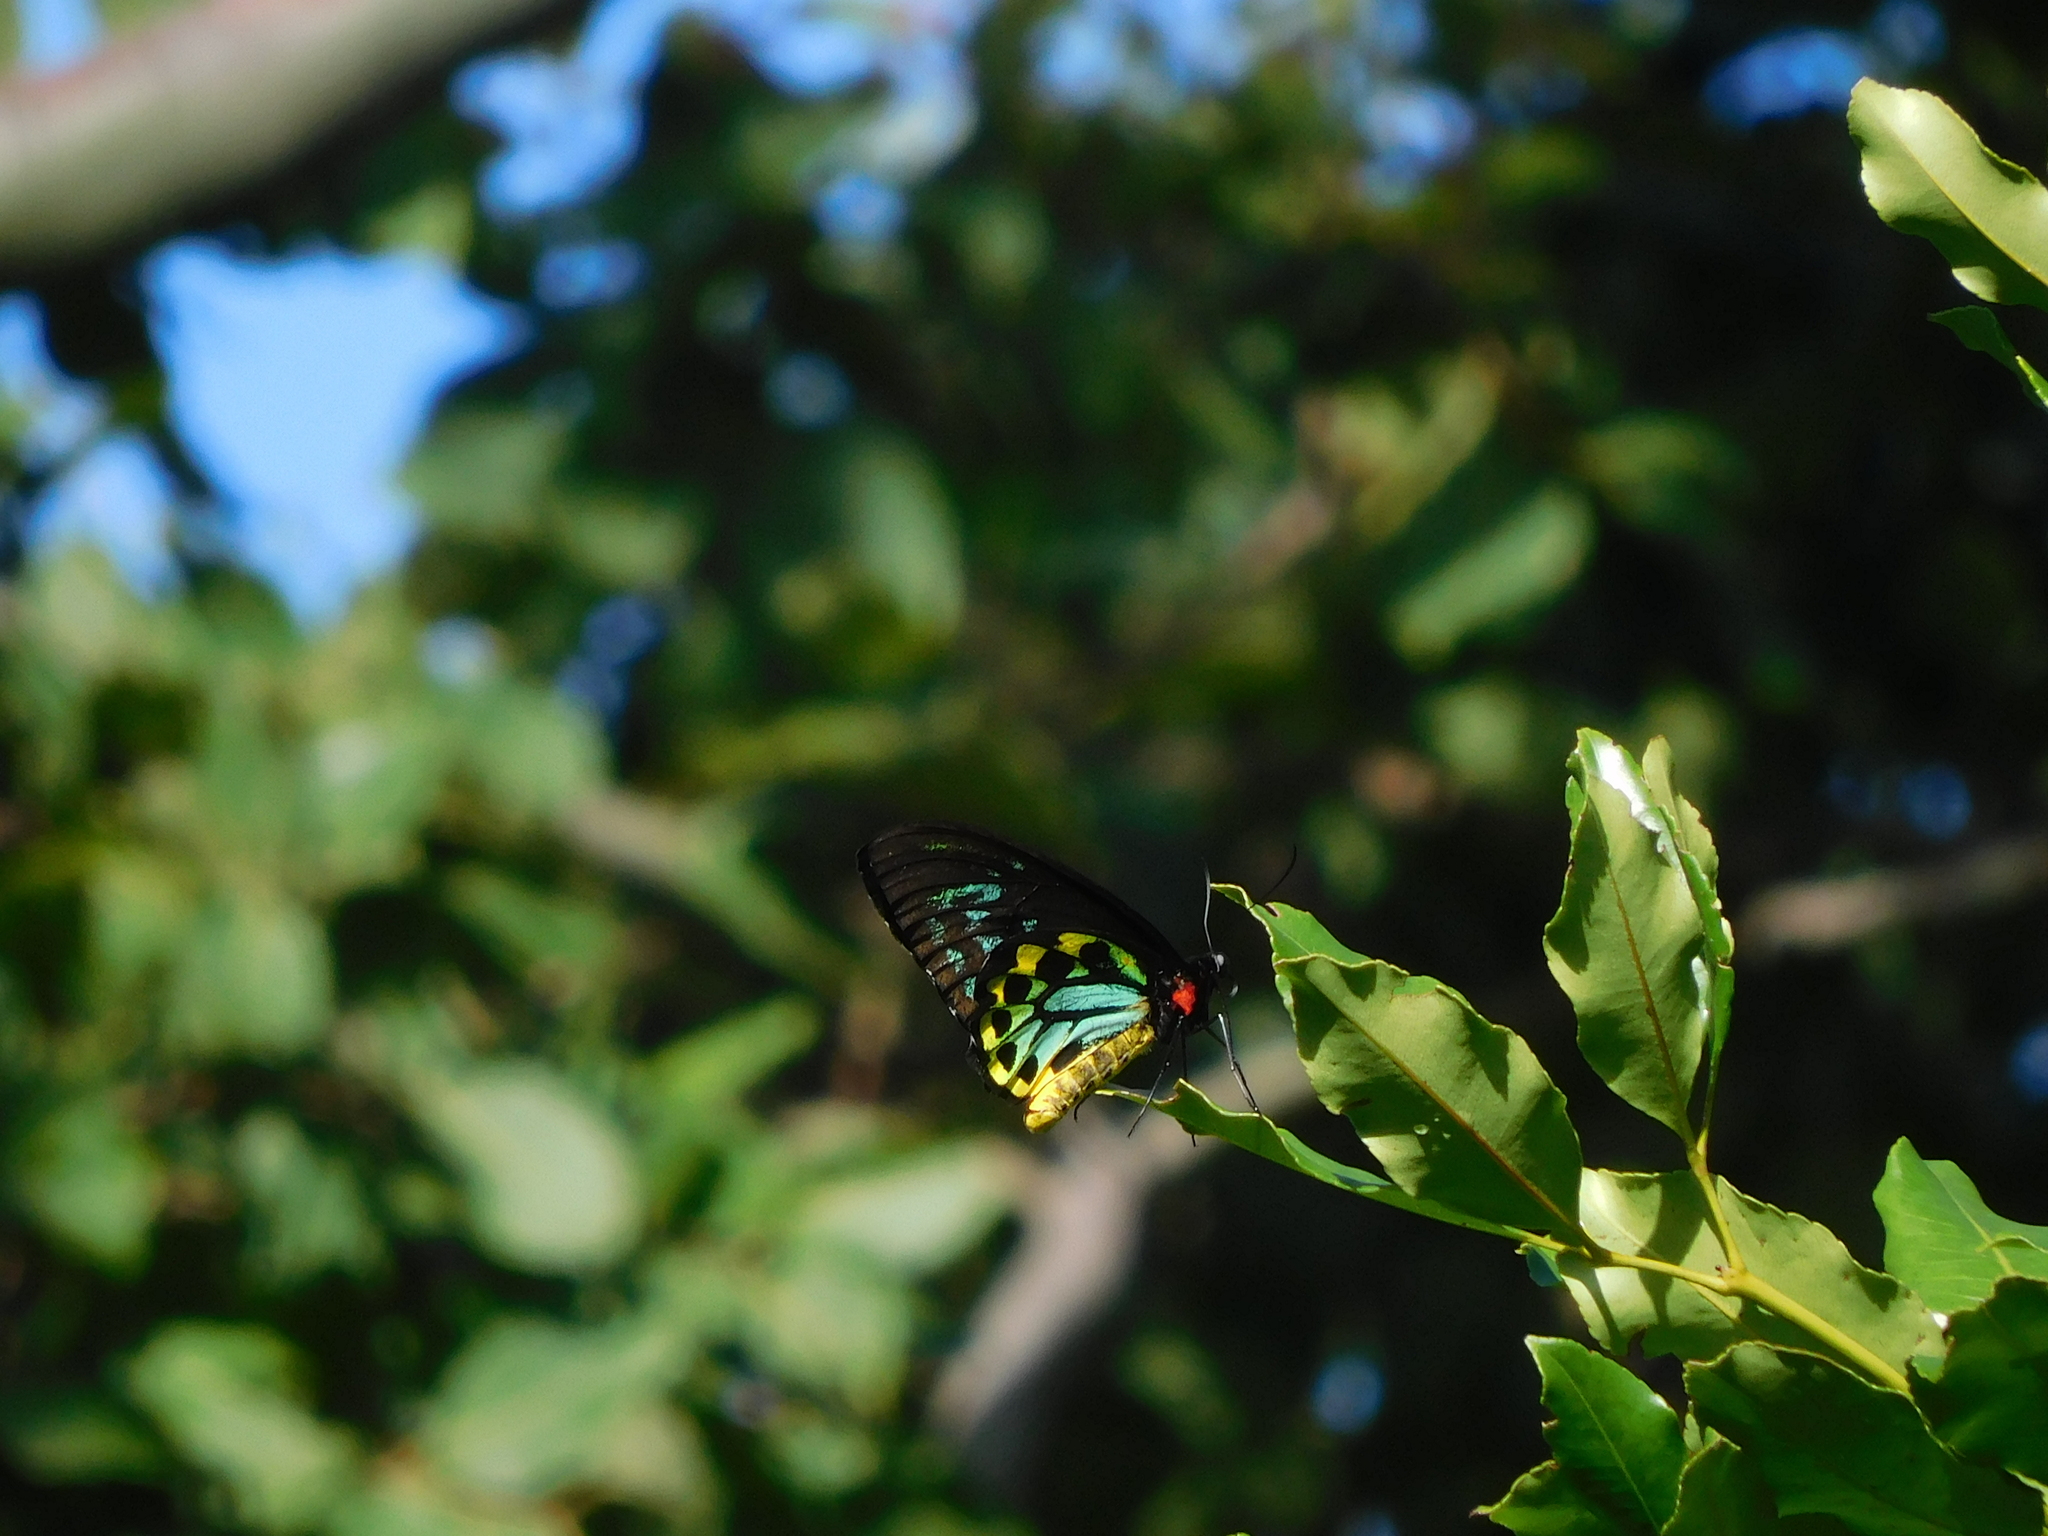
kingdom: Animalia
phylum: Arthropoda
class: Insecta
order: Lepidoptera
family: Papilionidae
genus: Ornithoptera
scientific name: Ornithoptera euphorion
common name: Cairns birdwing
